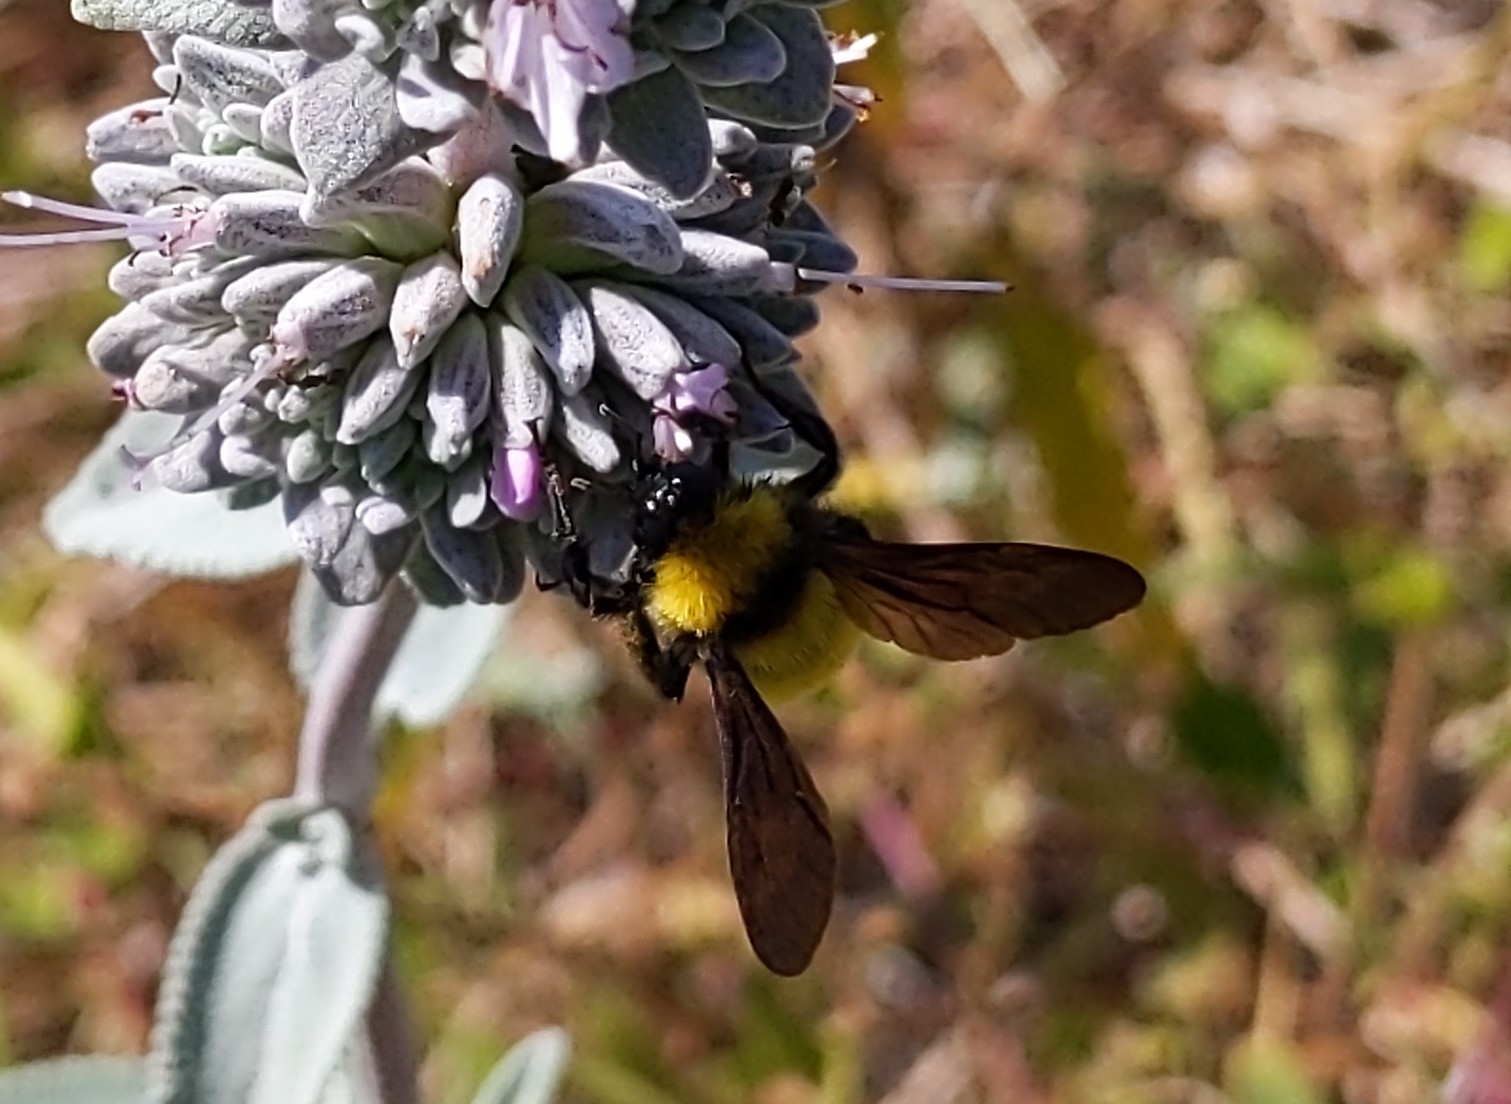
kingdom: Animalia
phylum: Arthropoda
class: Insecta
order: Hymenoptera
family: Apidae
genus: Bombus
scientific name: Bombus sonorus
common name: Sonoran bumble bee
